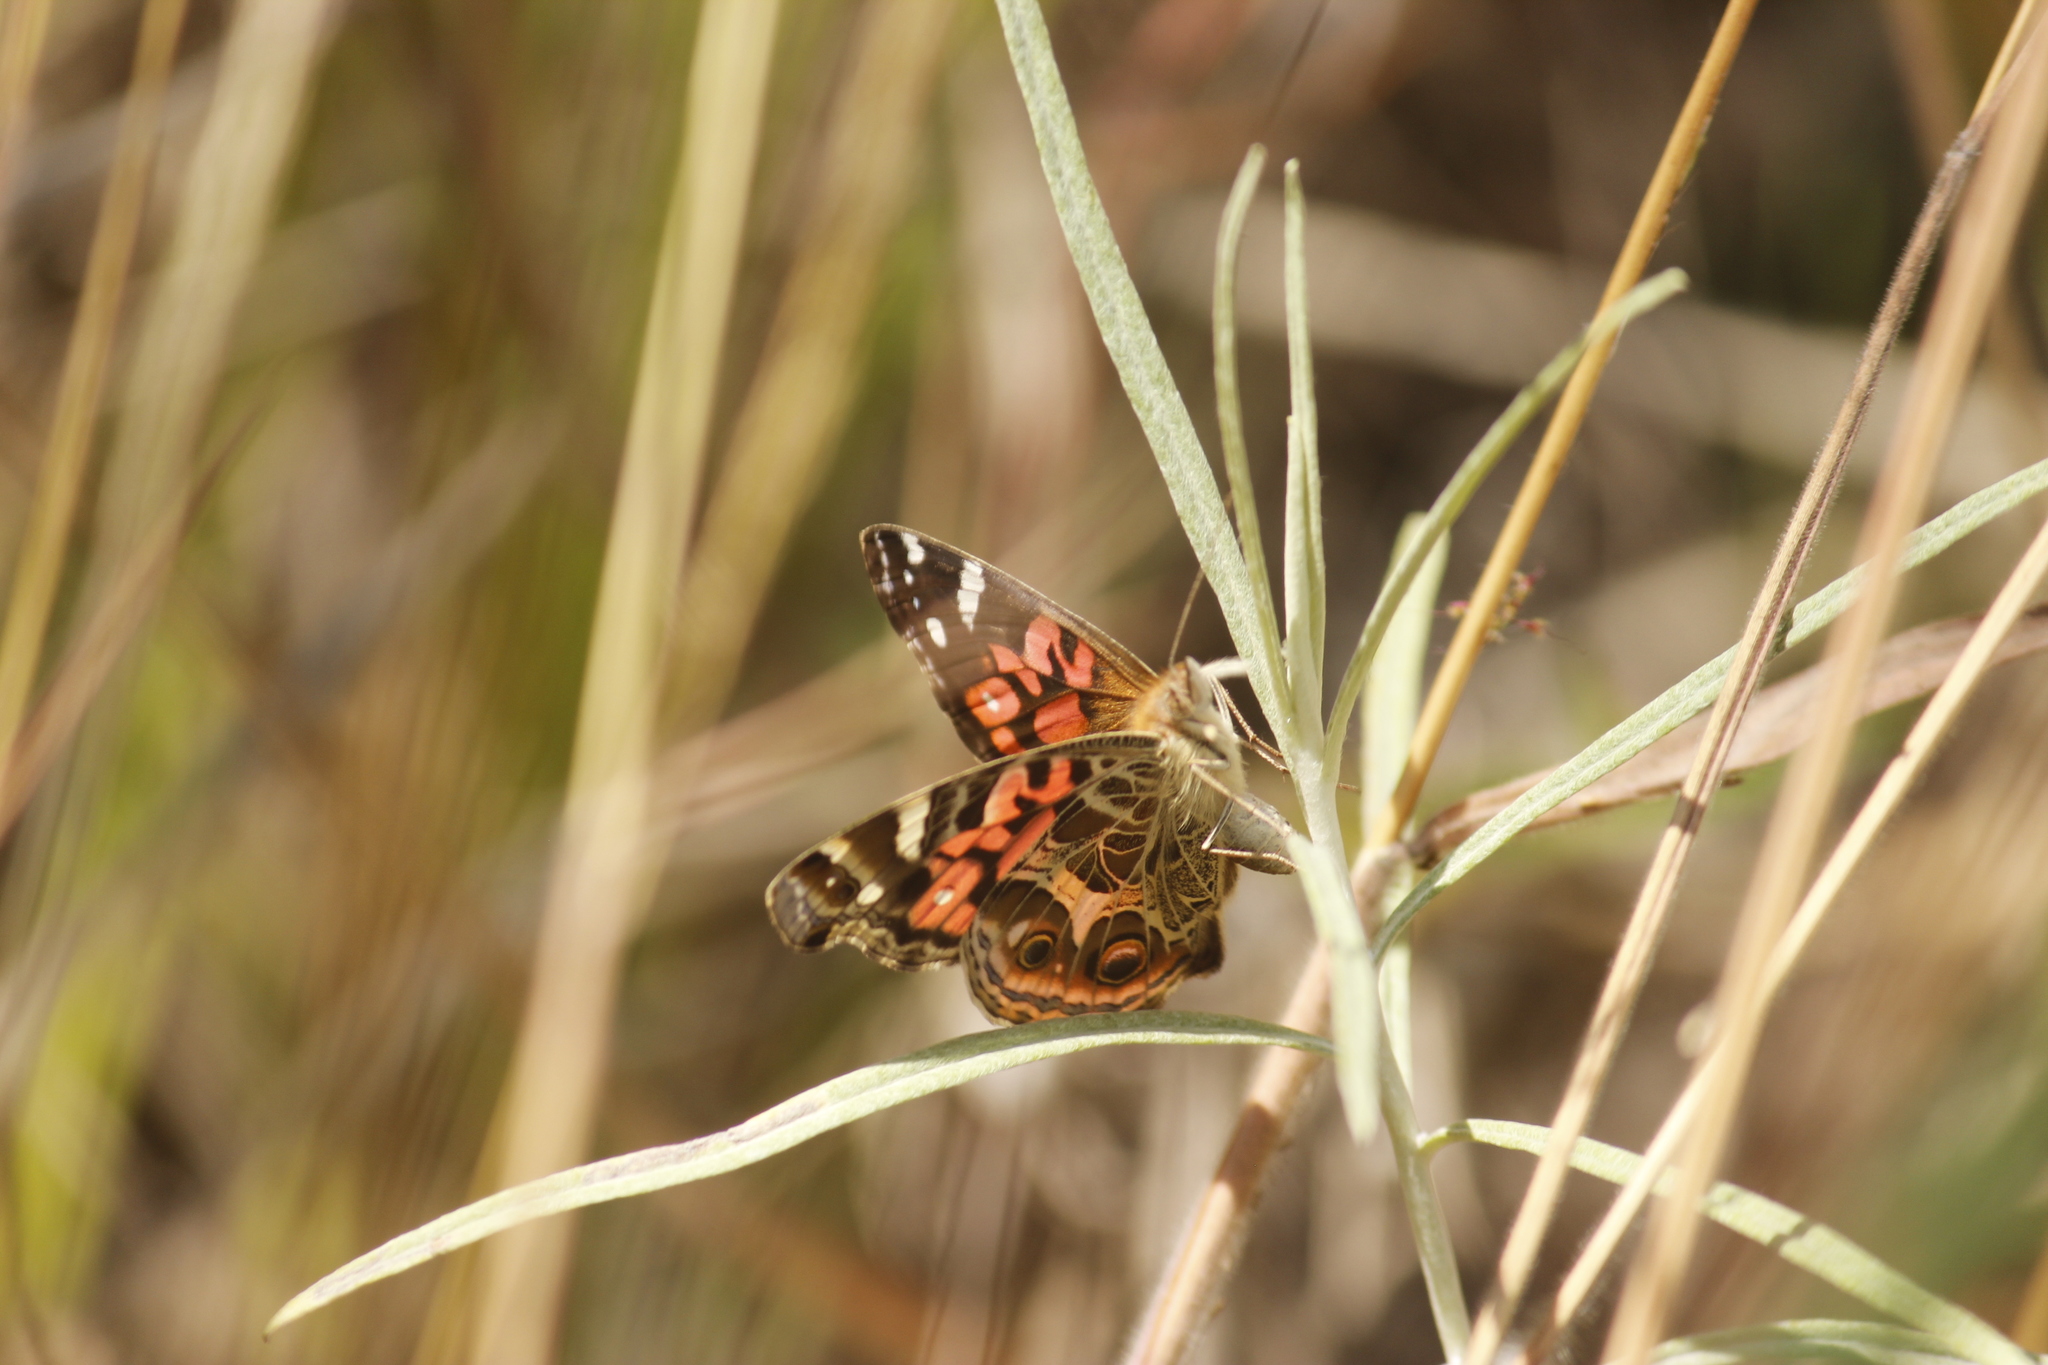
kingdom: Animalia
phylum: Arthropoda
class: Insecta
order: Lepidoptera
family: Nymphalidae
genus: Vanessa
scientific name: Vanessa braziliensis
